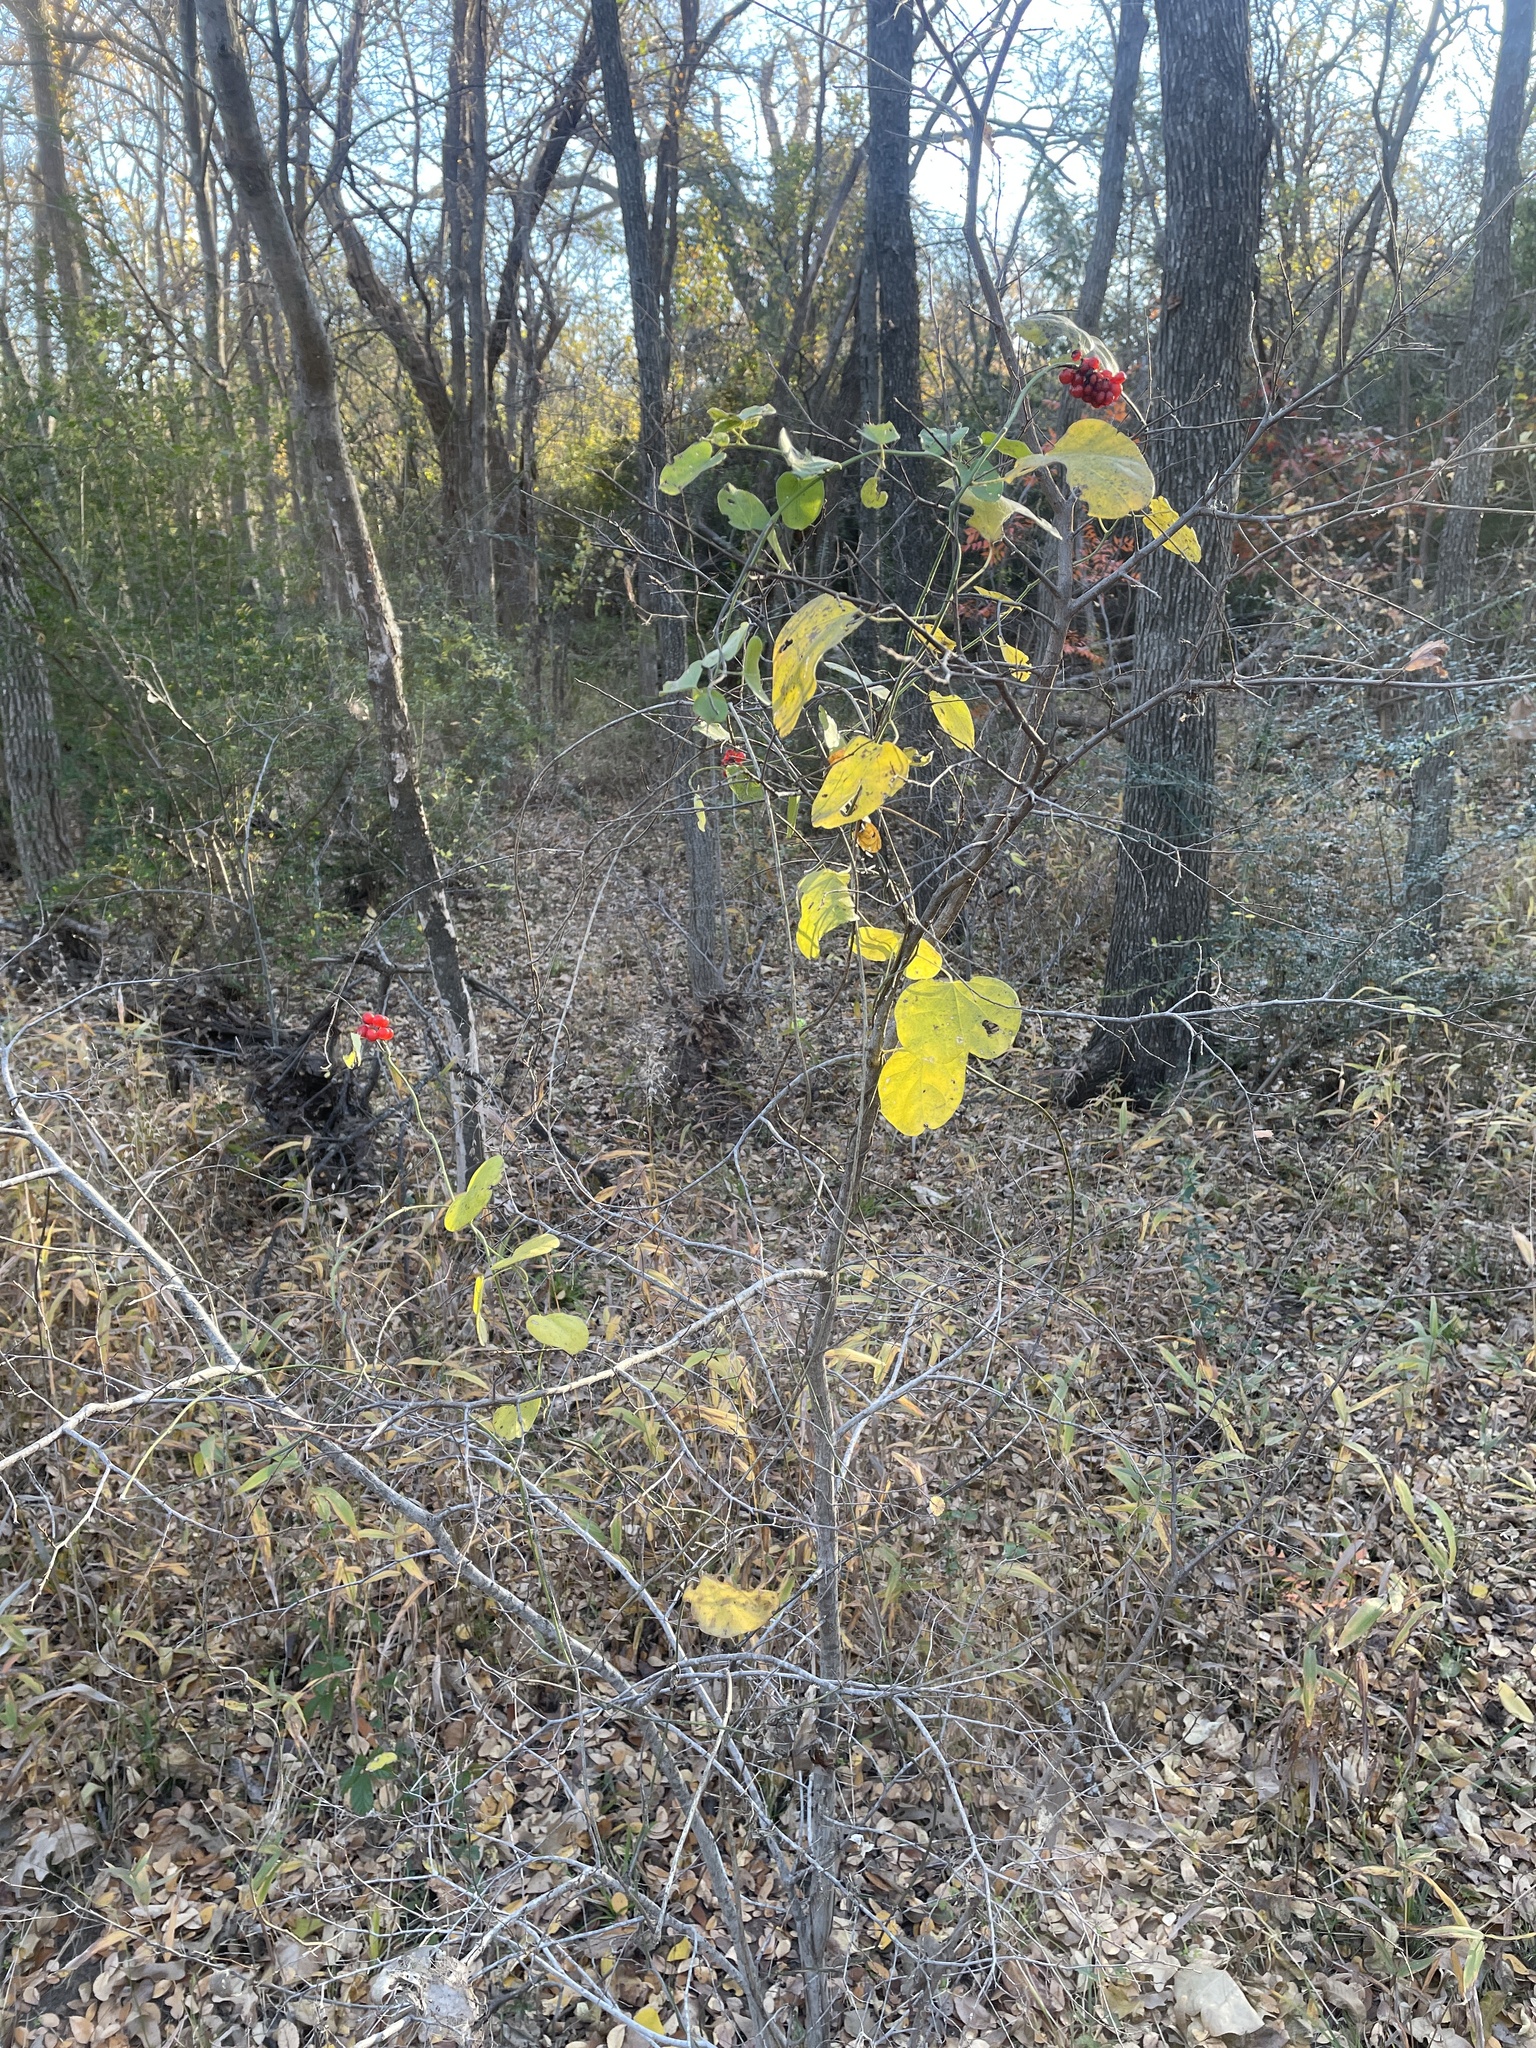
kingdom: Plantae
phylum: Tracheophyta
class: Magnoliopsida
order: Ranunculales
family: Menispermaceae
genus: Cocculus
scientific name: Cocculus carolinus
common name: Carolina moonseed
